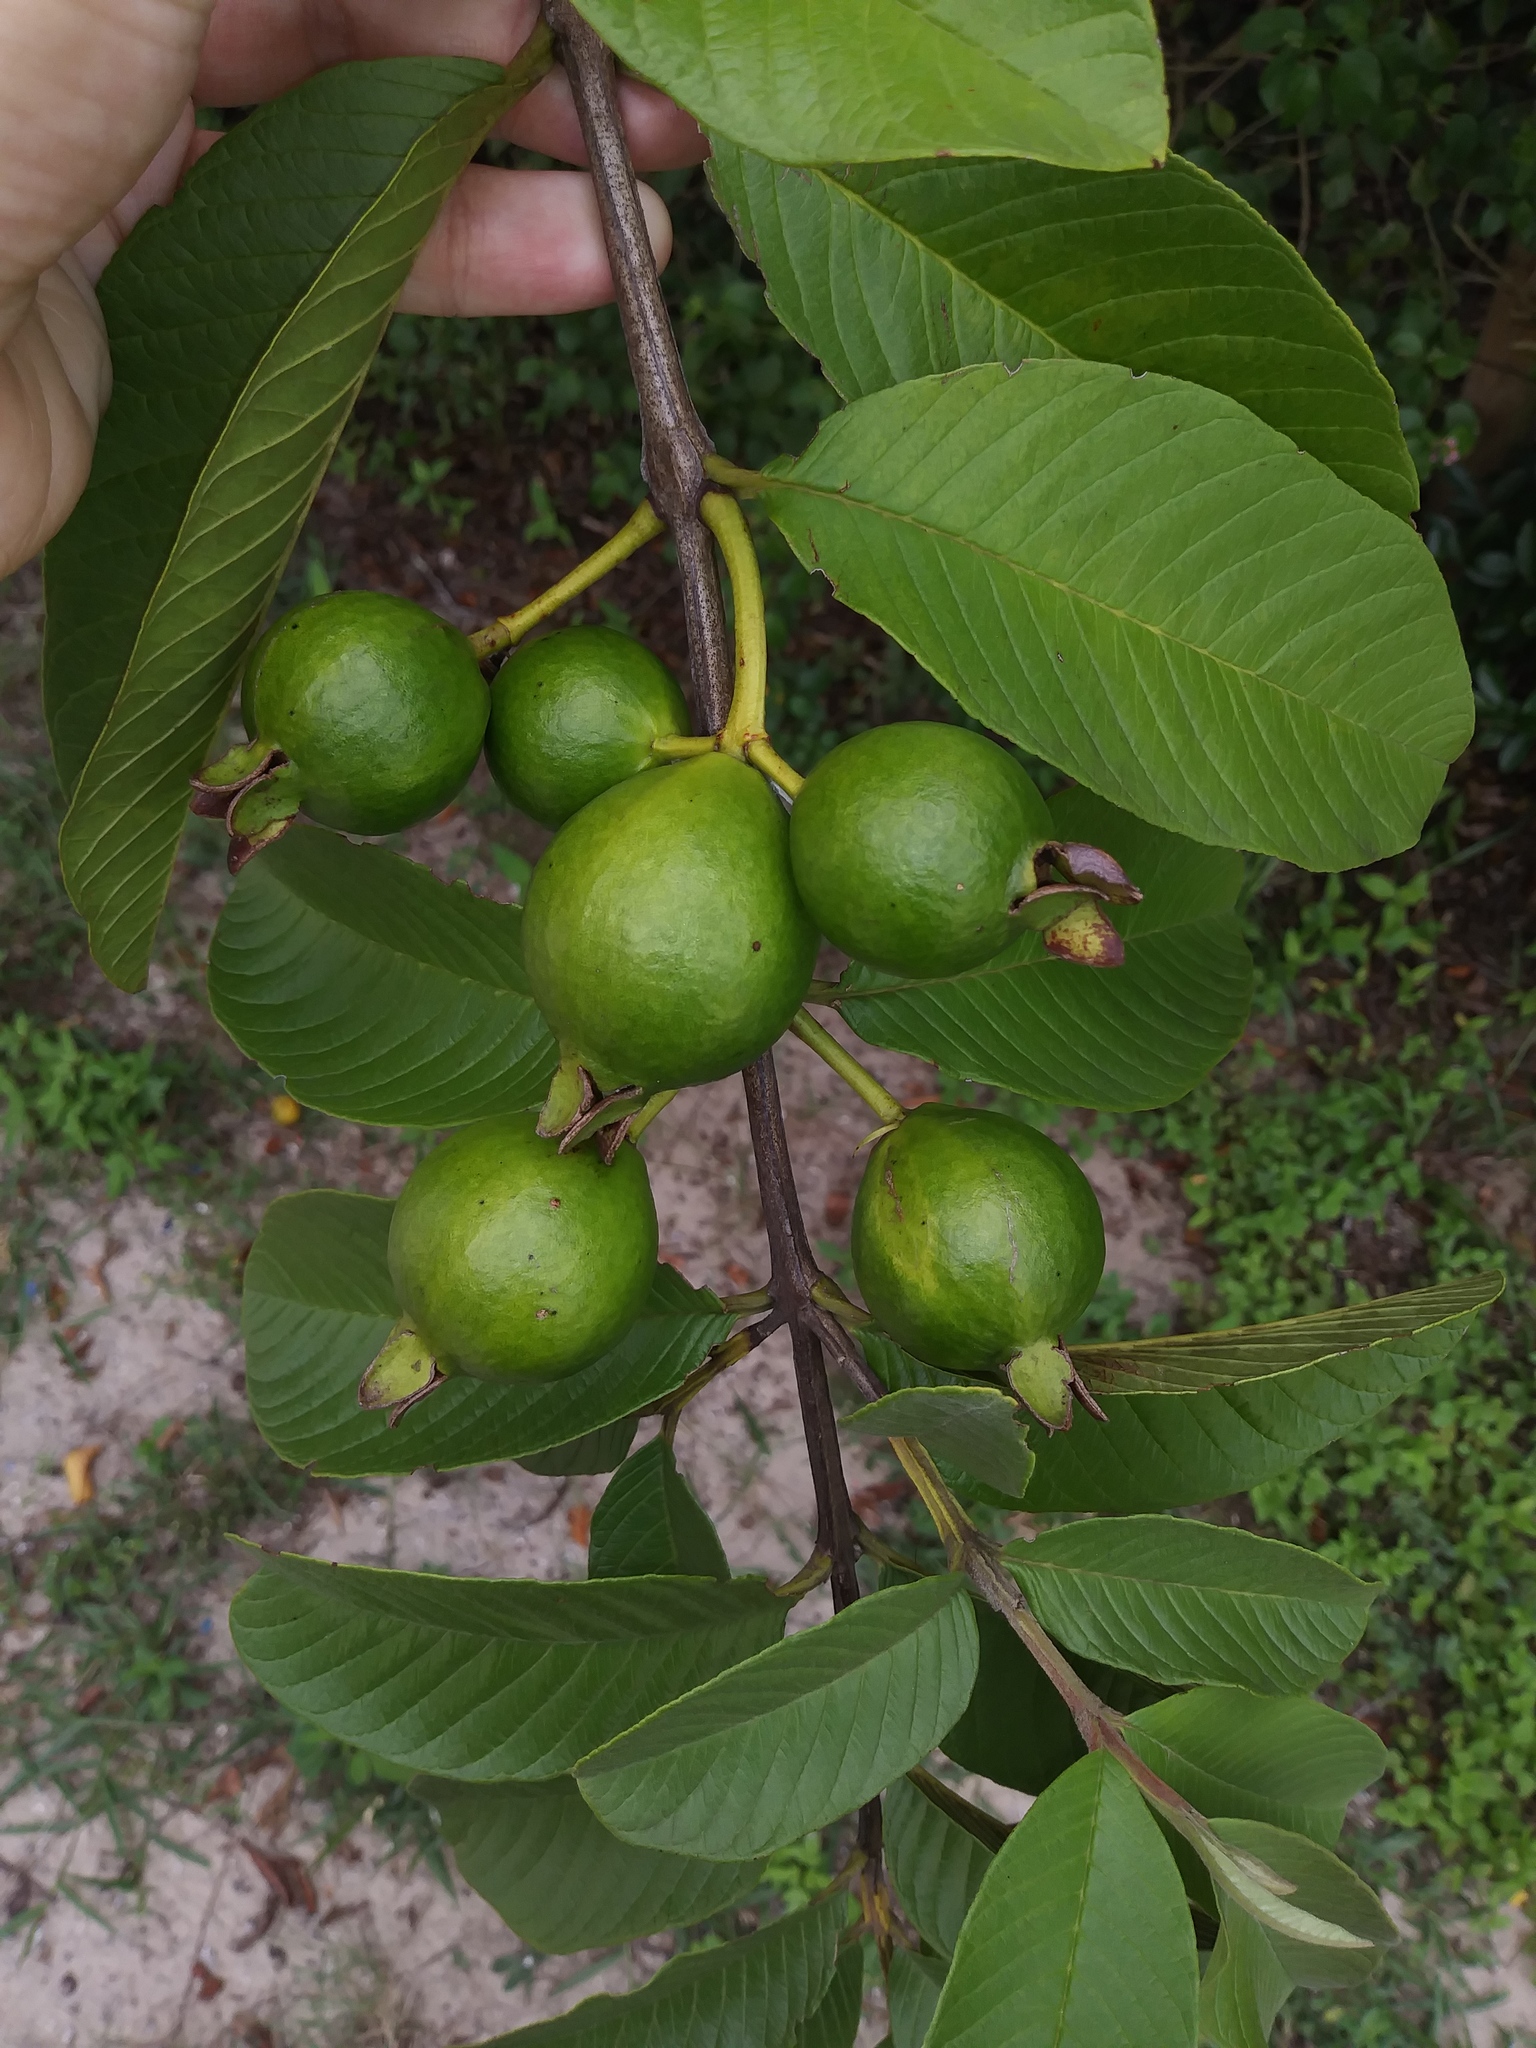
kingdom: Plantae
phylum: Tracheophyta
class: Magnoliopsida
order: Myrtales
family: Myrtaceae
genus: Psidium
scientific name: Psidium guajava
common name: Guava
